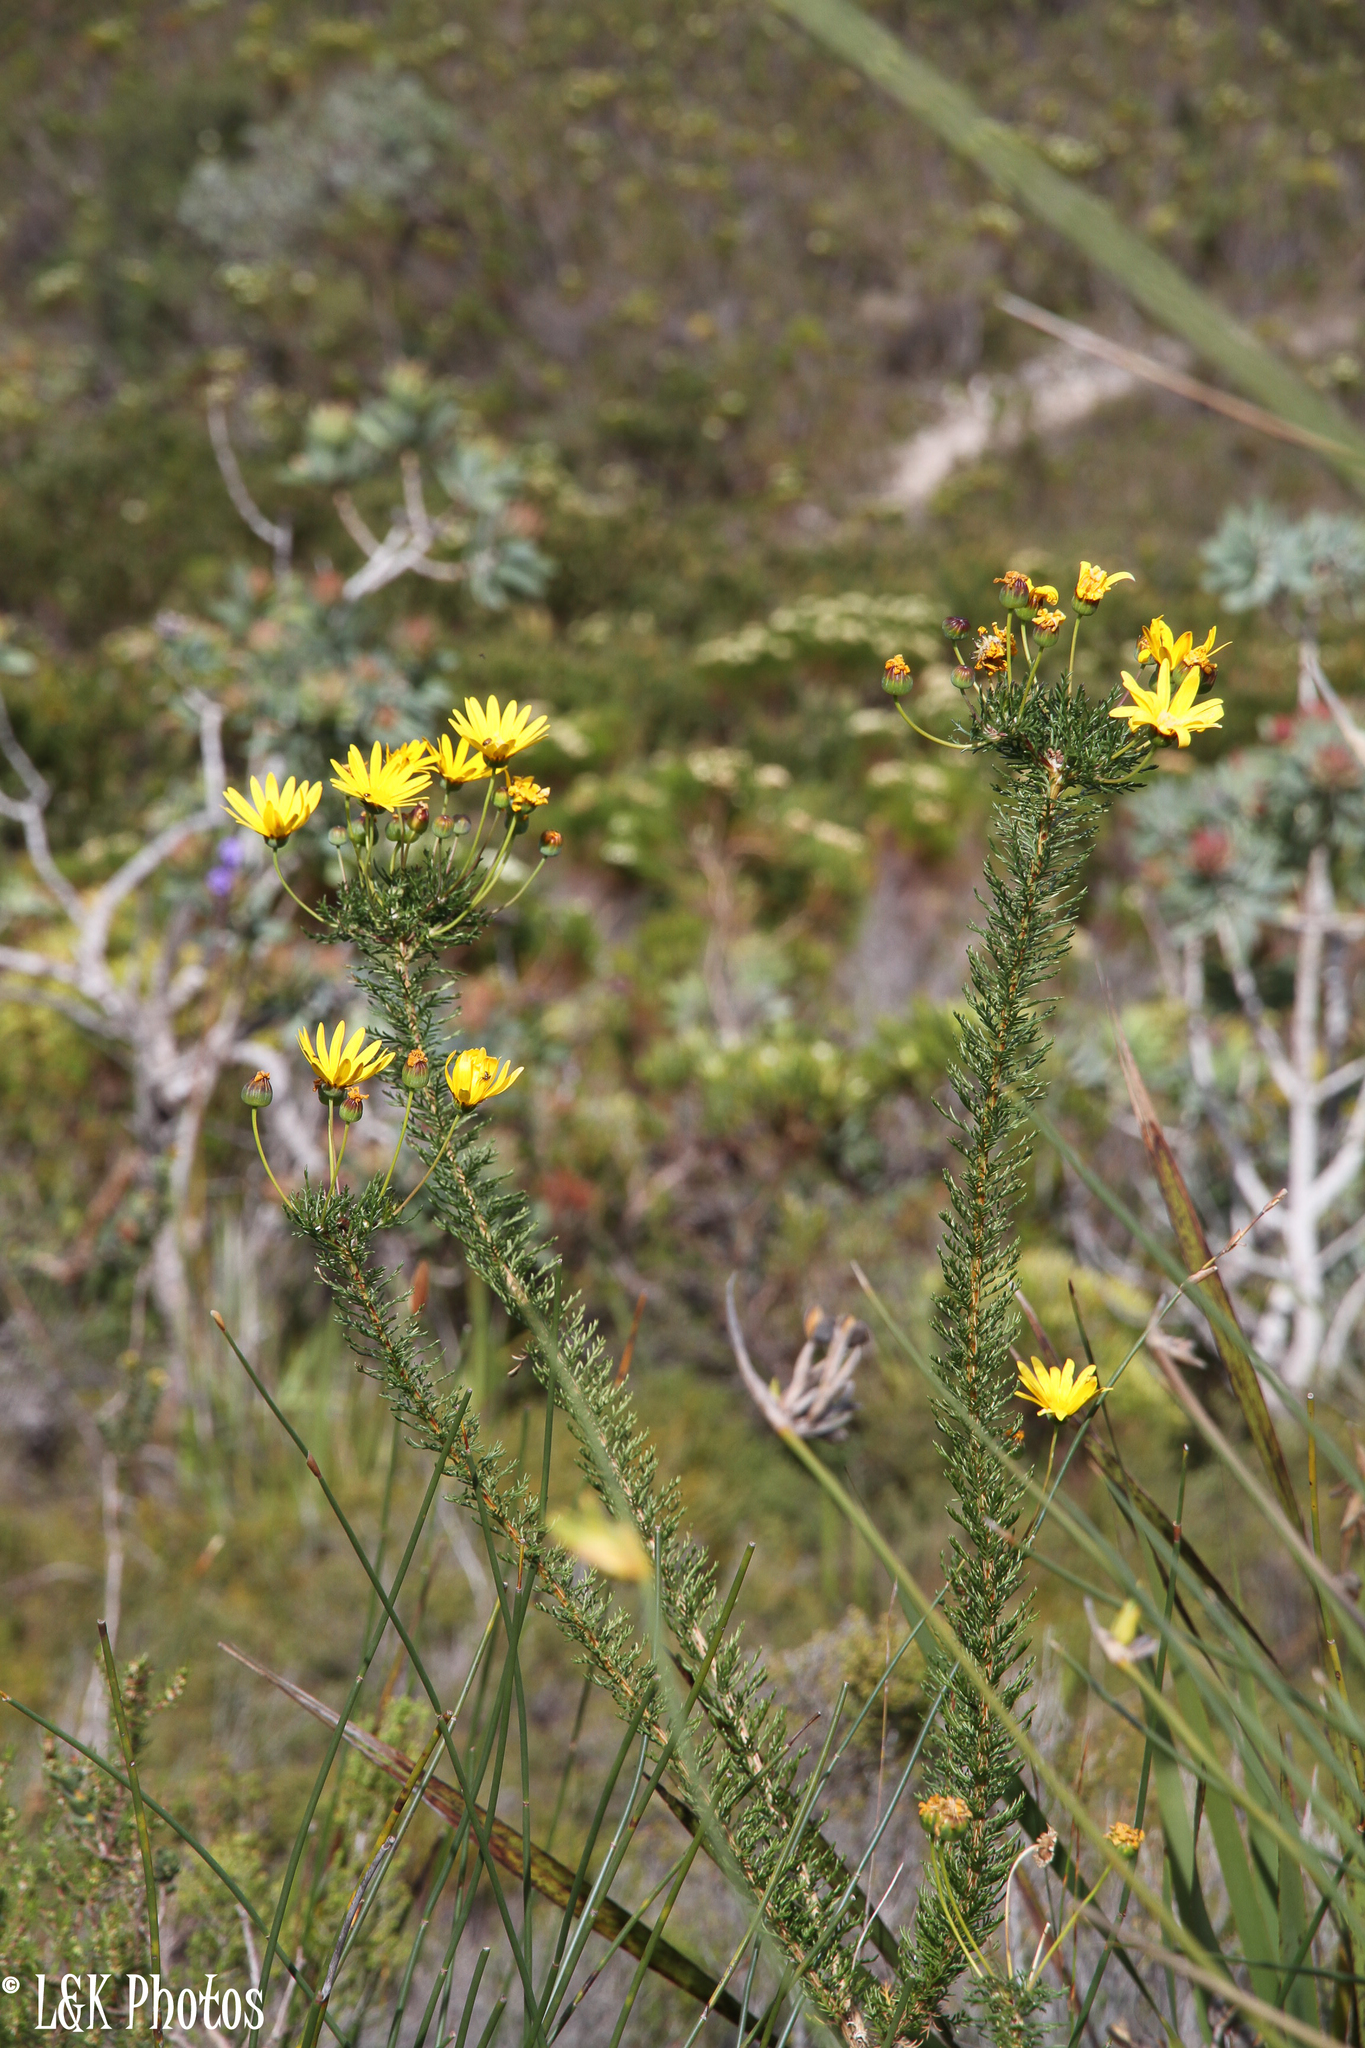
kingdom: Plantae
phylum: Tracheophyta
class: Magnoliopsida
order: Asterales
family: Asteraceae
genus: Euryops
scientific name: Euryops abrotanifolius
